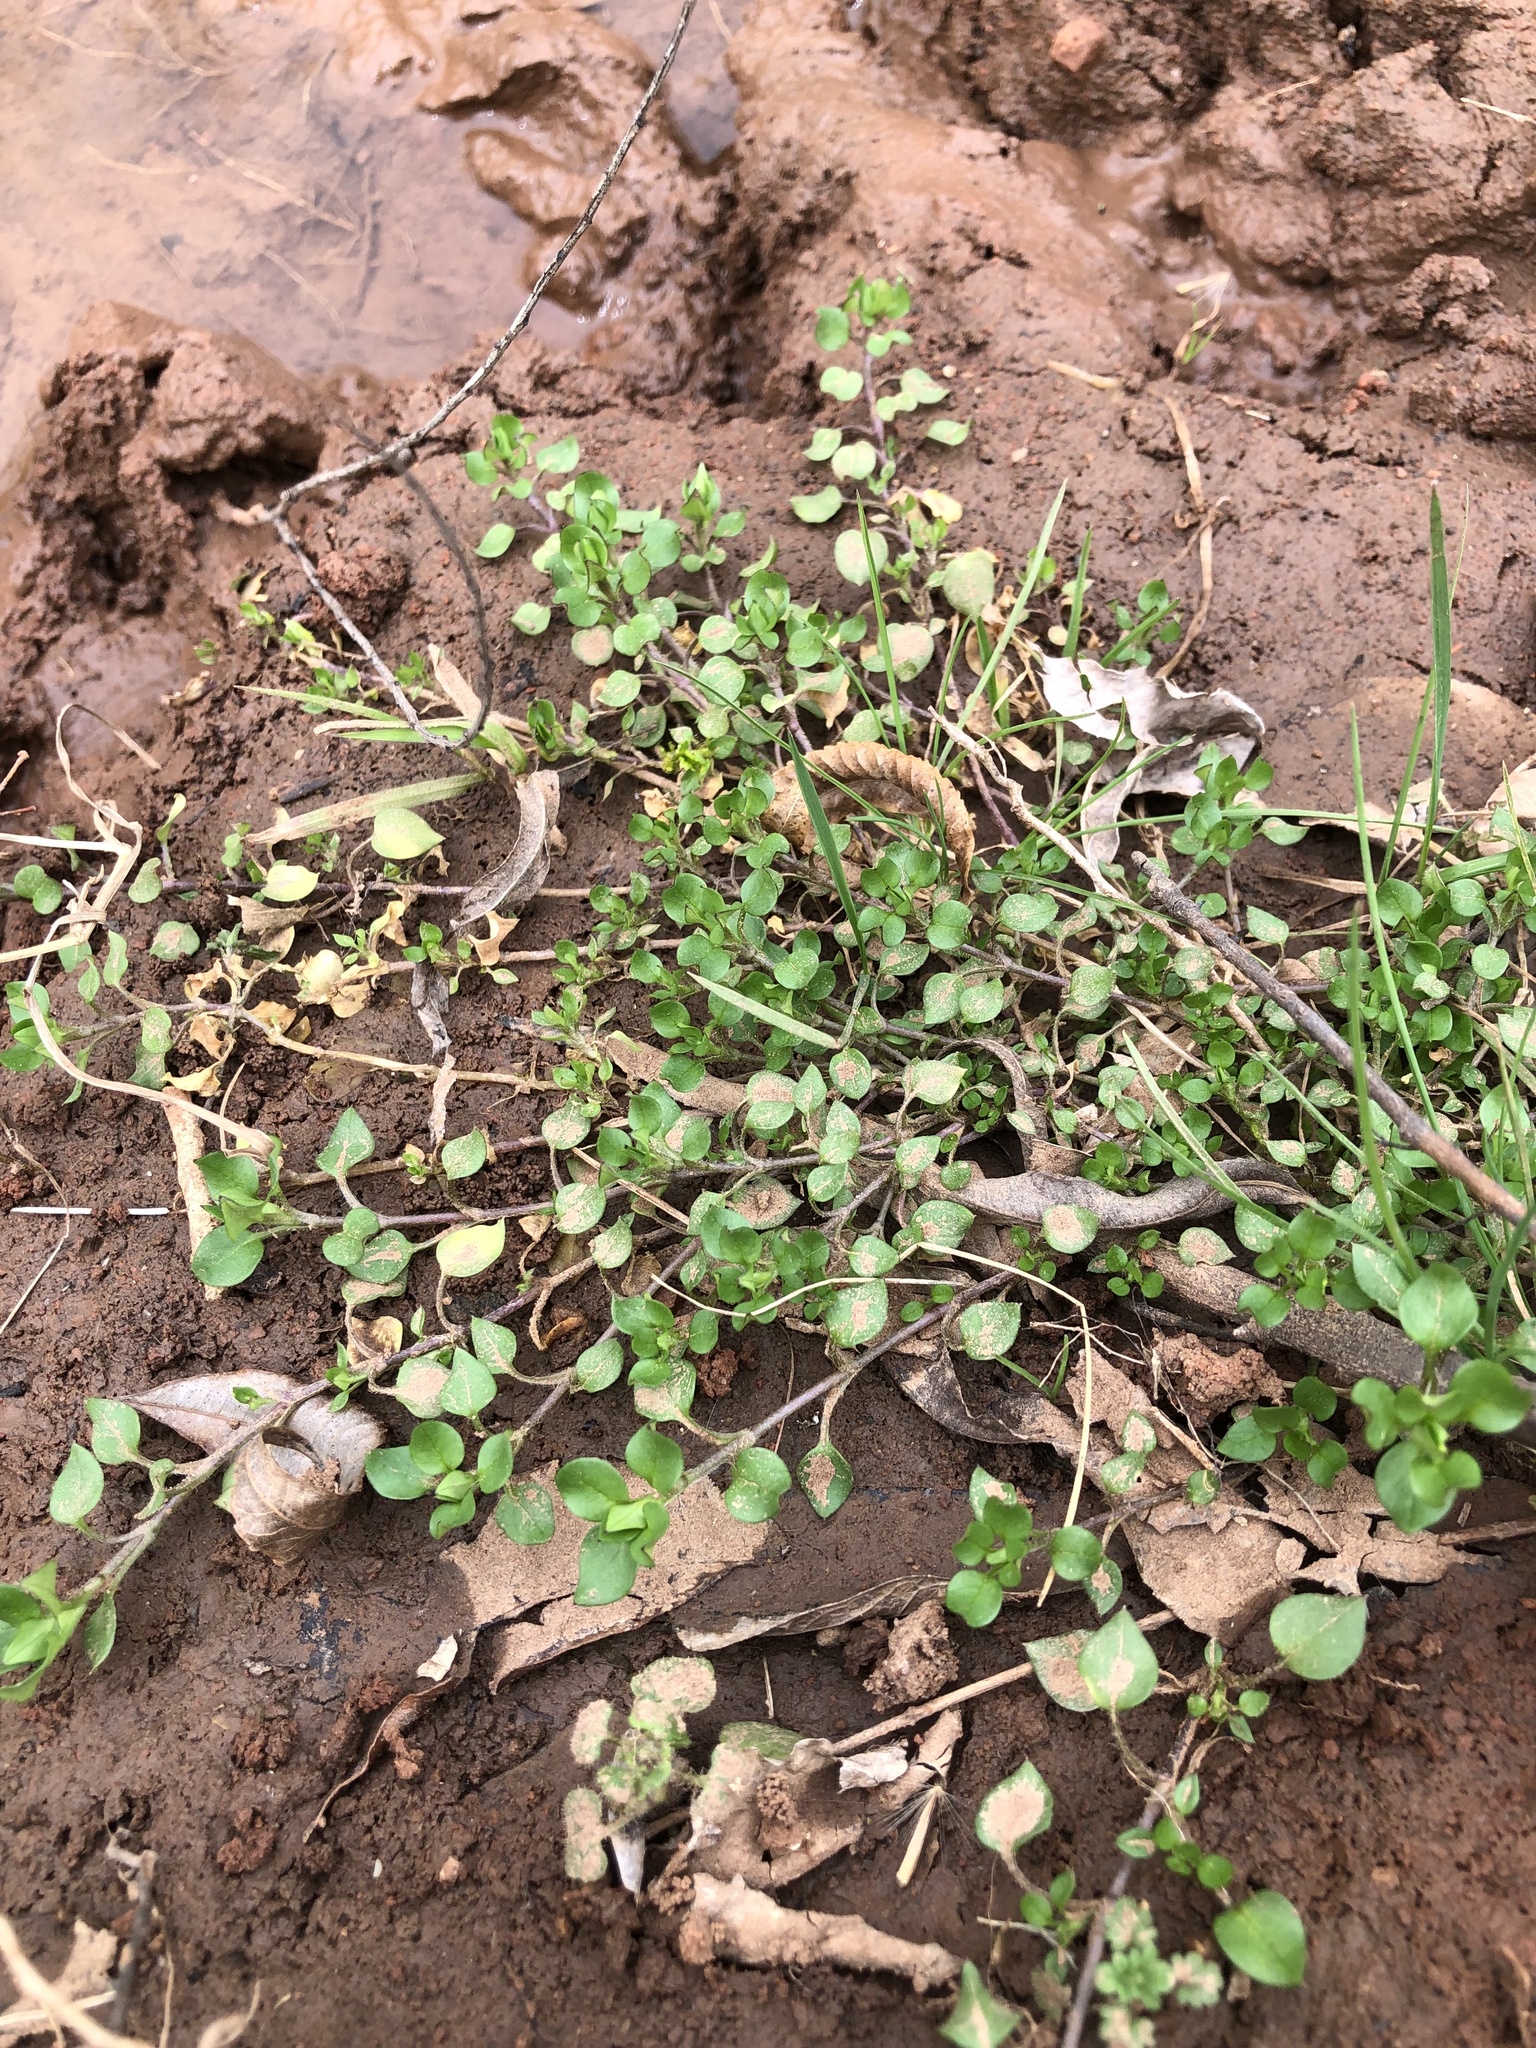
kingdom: Plantae
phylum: Tracheophyta
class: Magnoliopsida
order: Caryophyllales
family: Caryophyllaceae
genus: Stellaria
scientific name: Stellaria media
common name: Common chickweed
